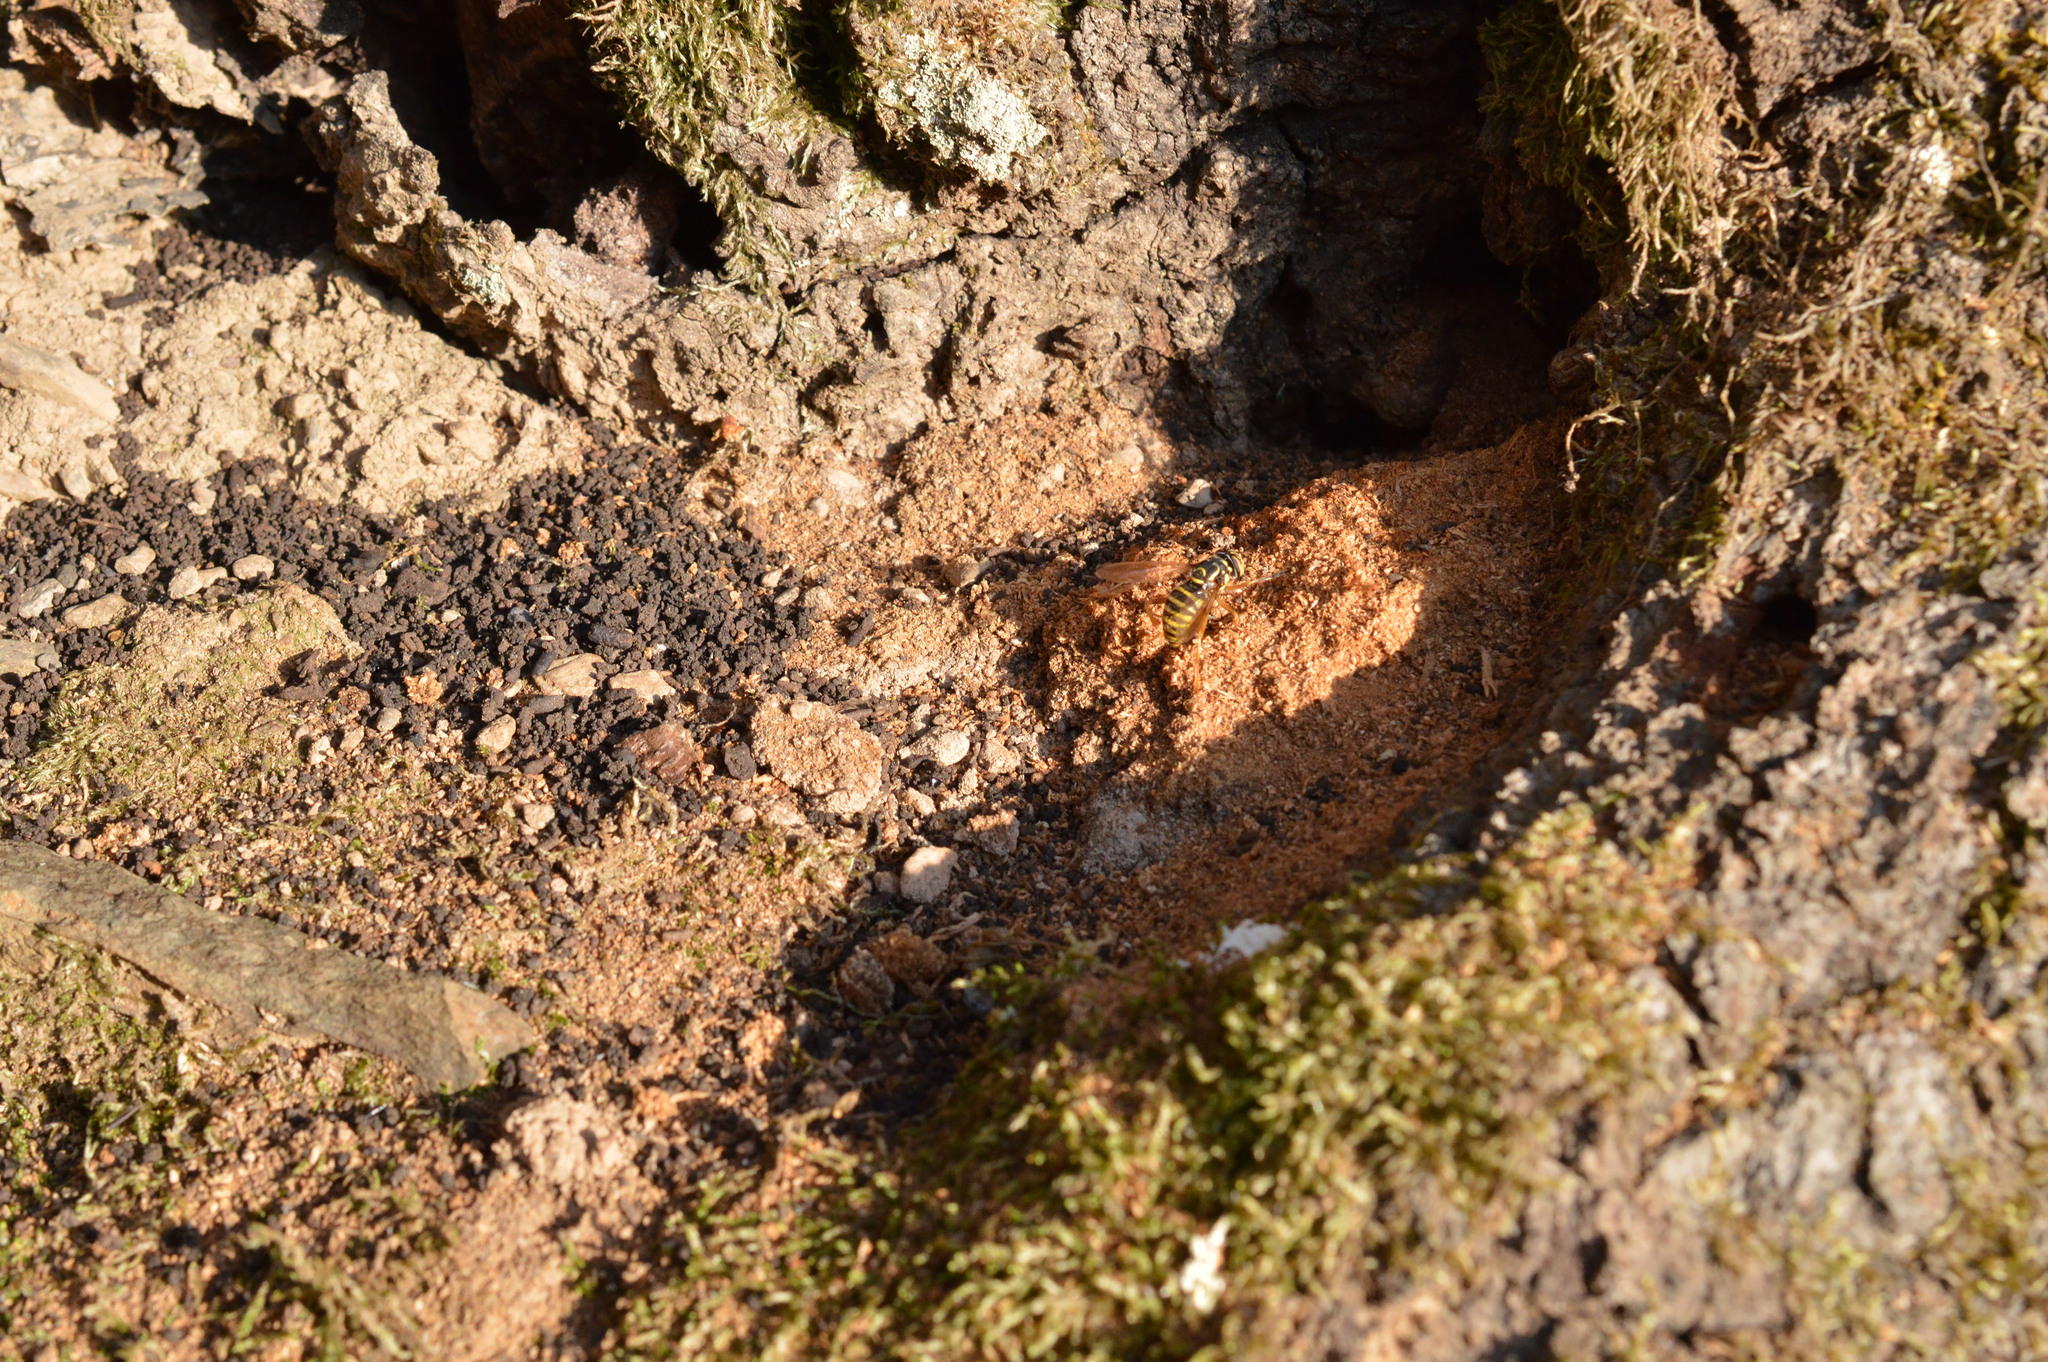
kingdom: Animalia
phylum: Arthropoda
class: Insecta
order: Diptera
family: Syrphidae
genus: Spilomyia
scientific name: Spilomyia manicata
